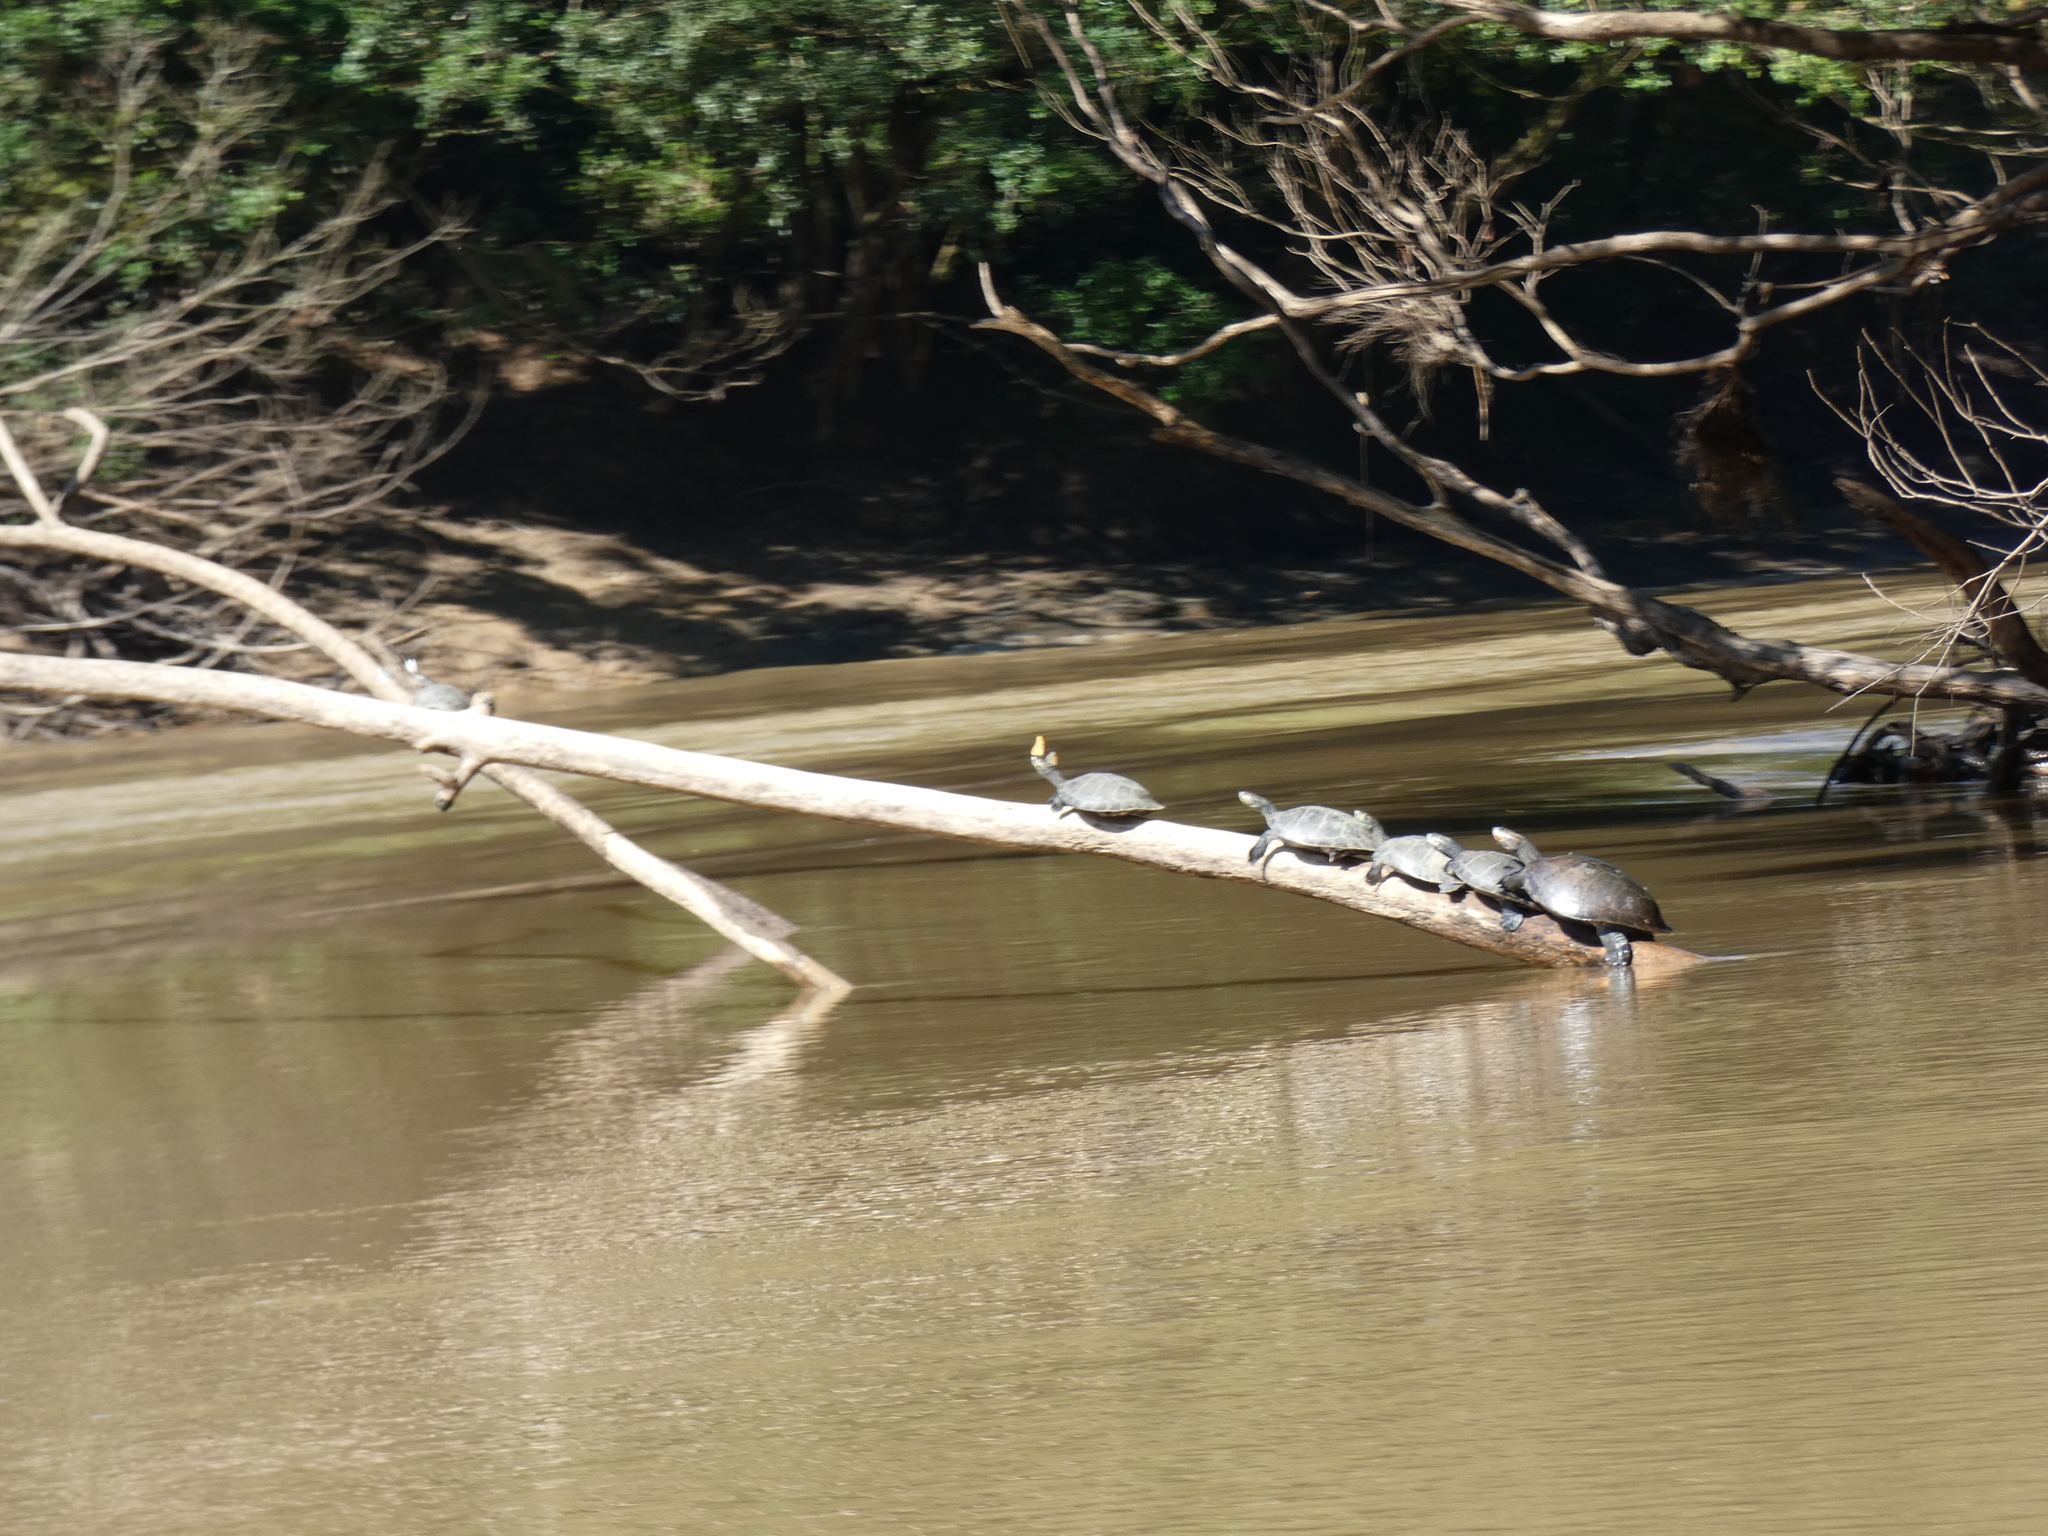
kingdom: Animalia
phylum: Chordata
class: Testudines
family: Podocnemididae
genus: Podocnemis
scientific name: Podocnemis unifilis
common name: Yellow-spotted amazon river turtle
